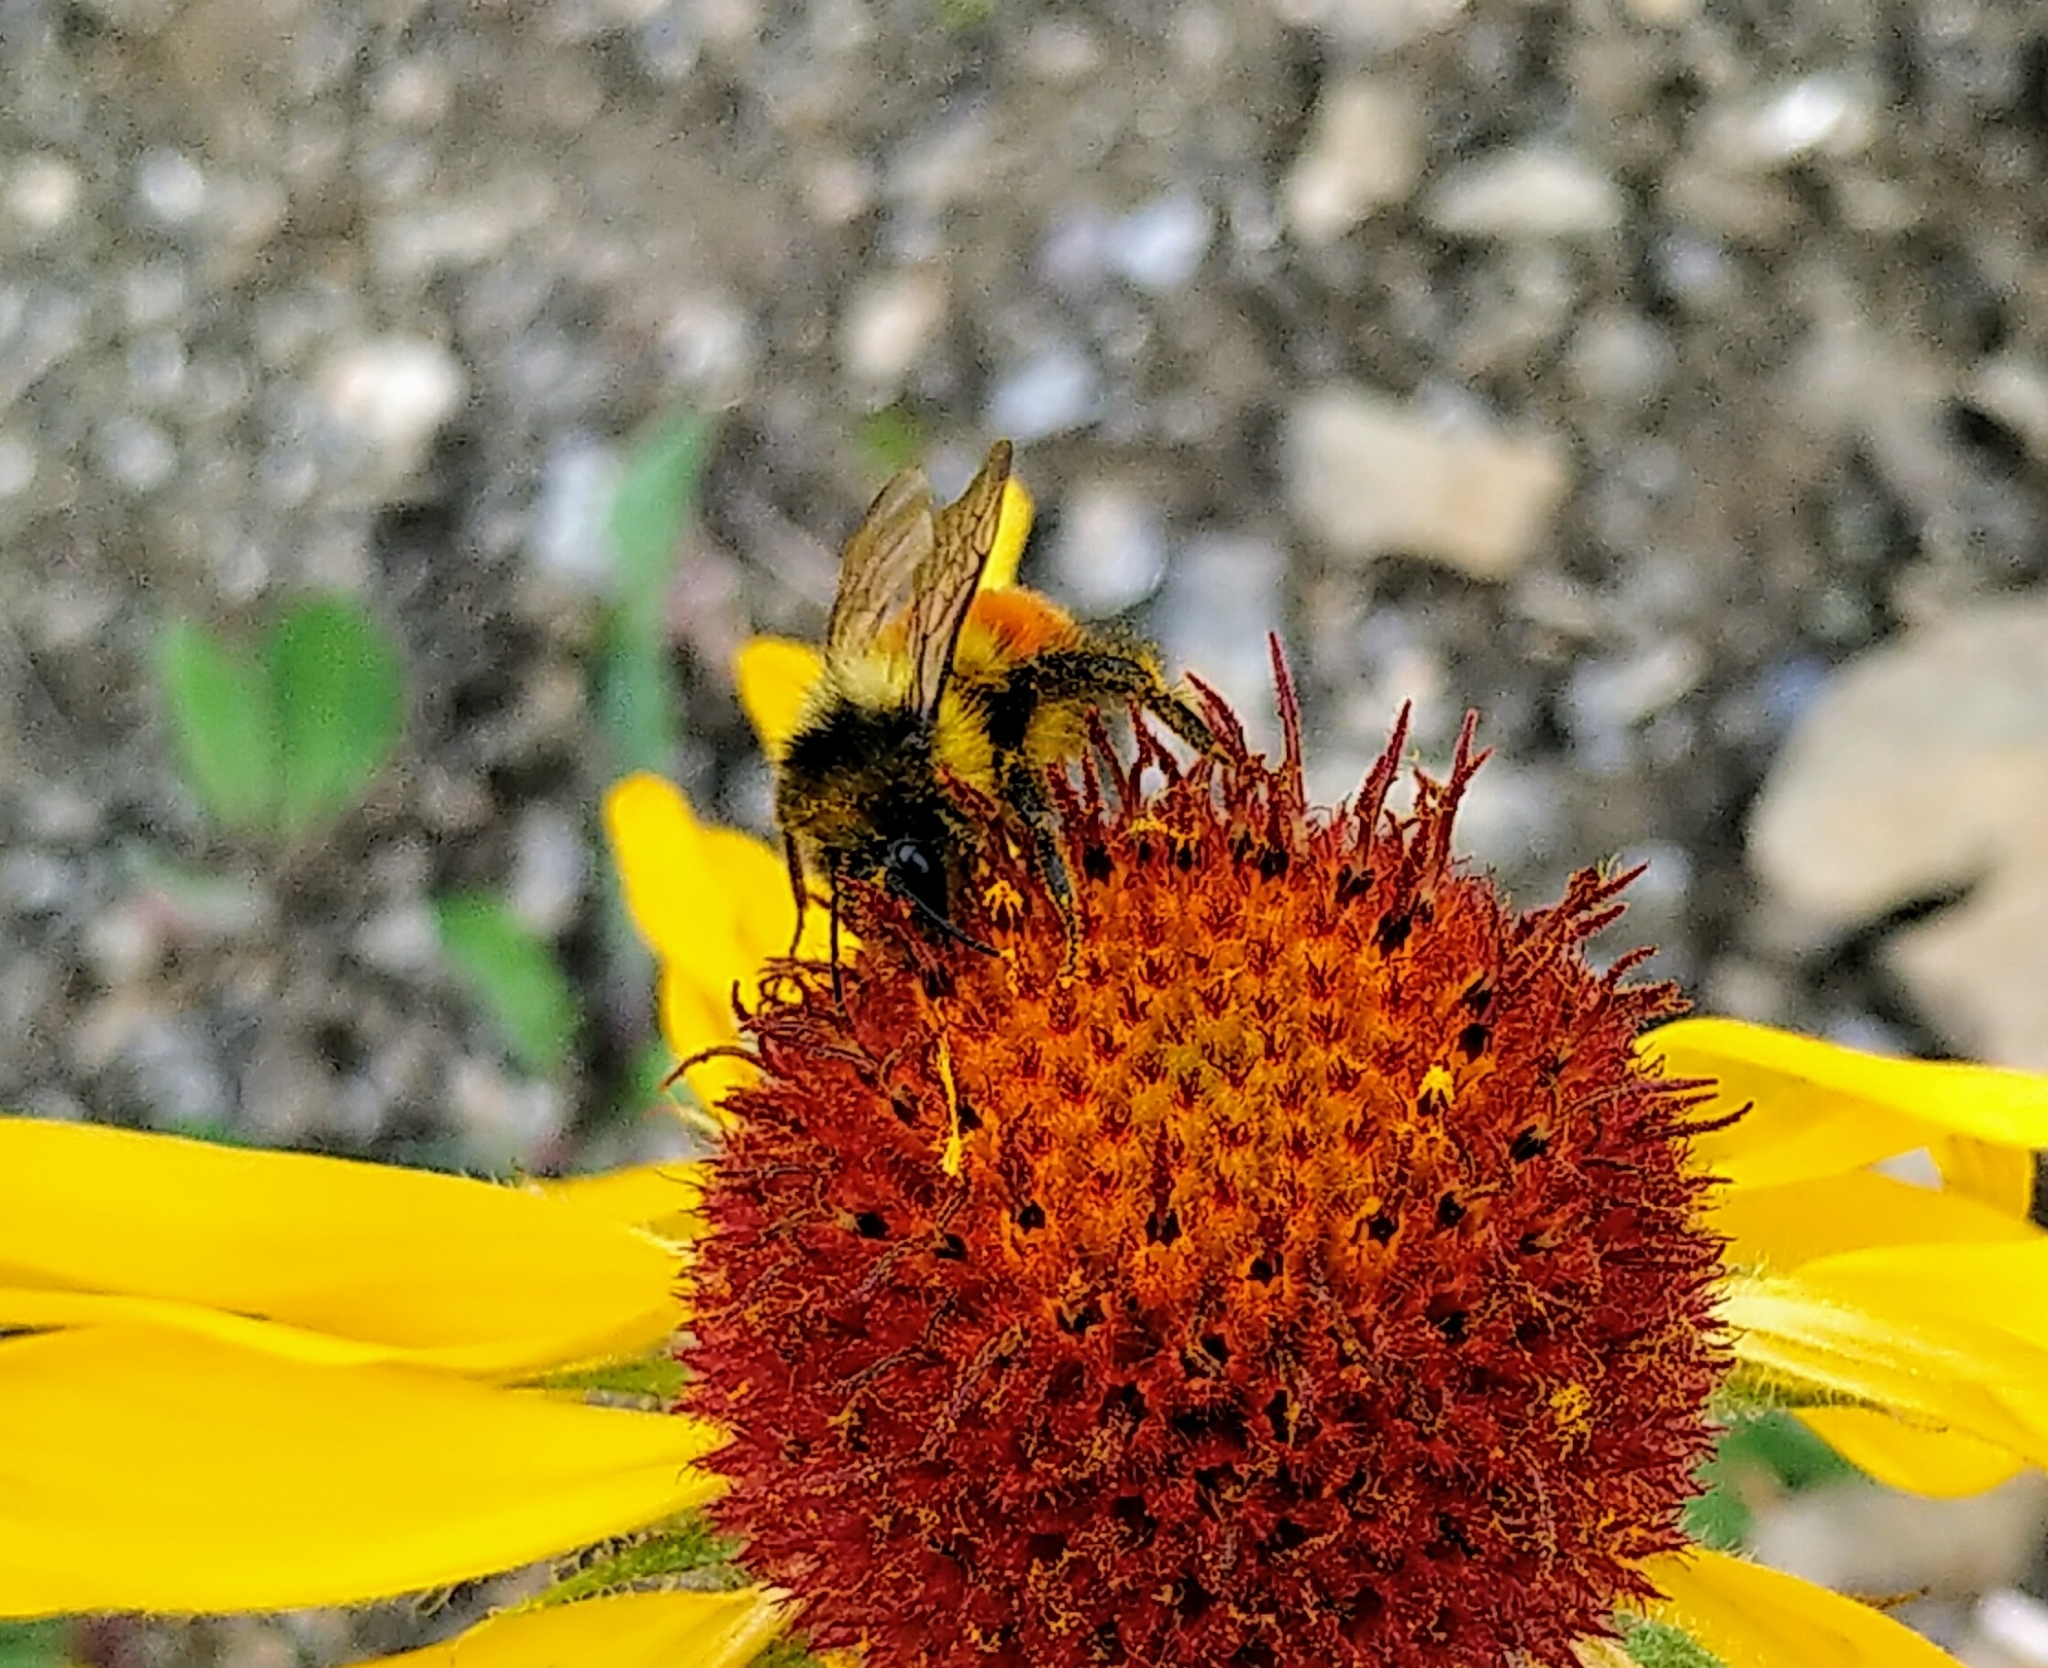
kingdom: Animalia
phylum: Arthropoda
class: Insecta
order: Hymenoptera
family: Apidae
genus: Bombus
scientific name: Bombus melanopygus
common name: Black tail bumble bee
